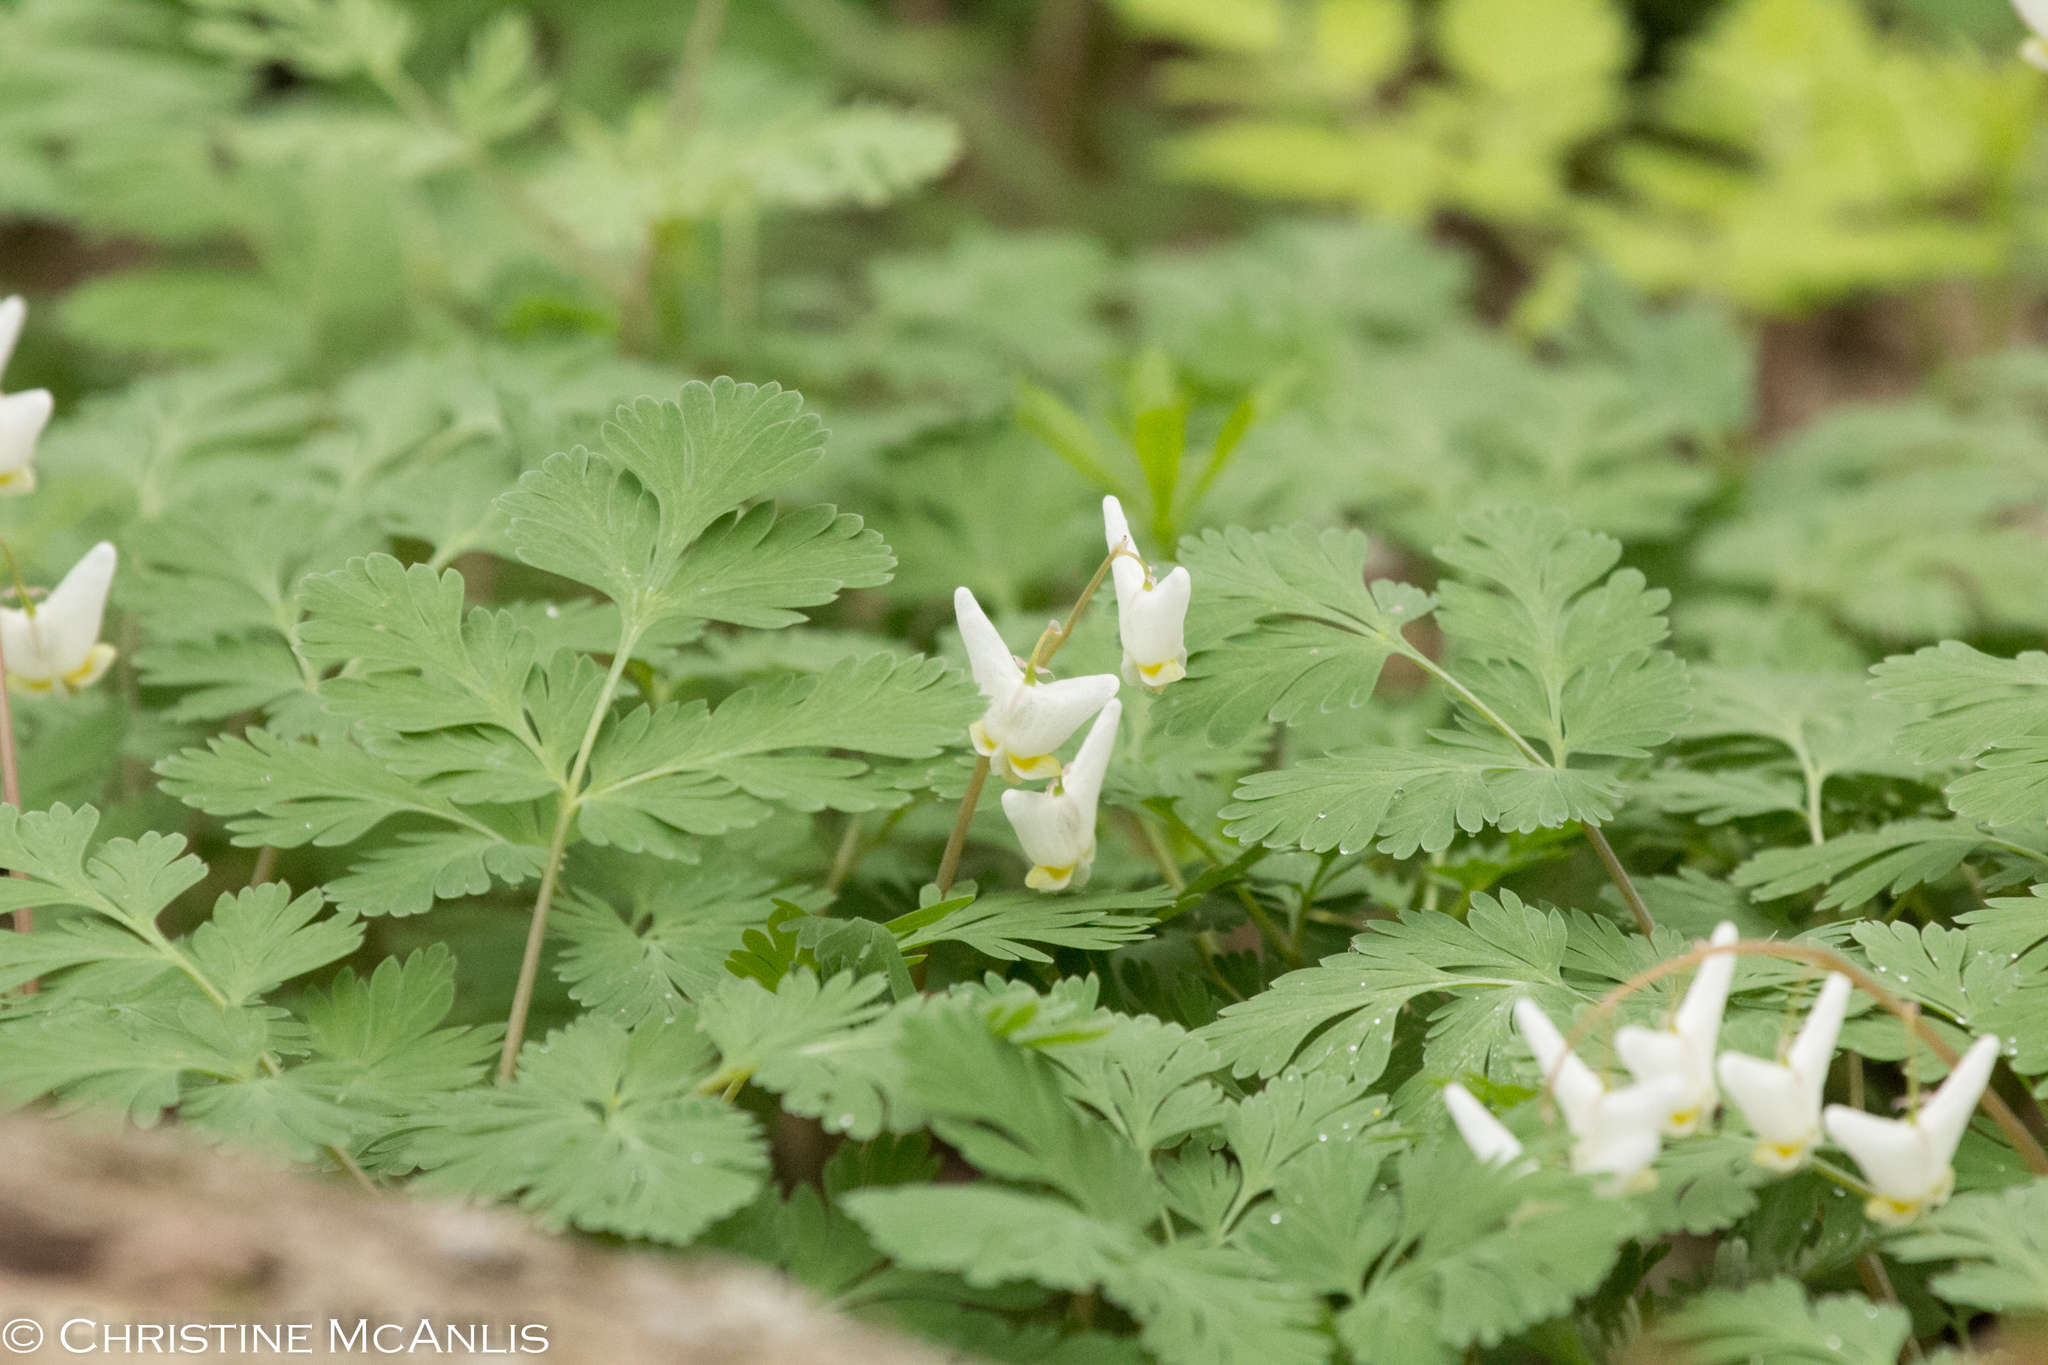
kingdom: Plantae
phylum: Tracheophyta
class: Magnoliopsida
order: Ranunculales
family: Papaveraceae
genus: Dicentra
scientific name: Dicentra cucullaria
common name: Dutchman's breeches
